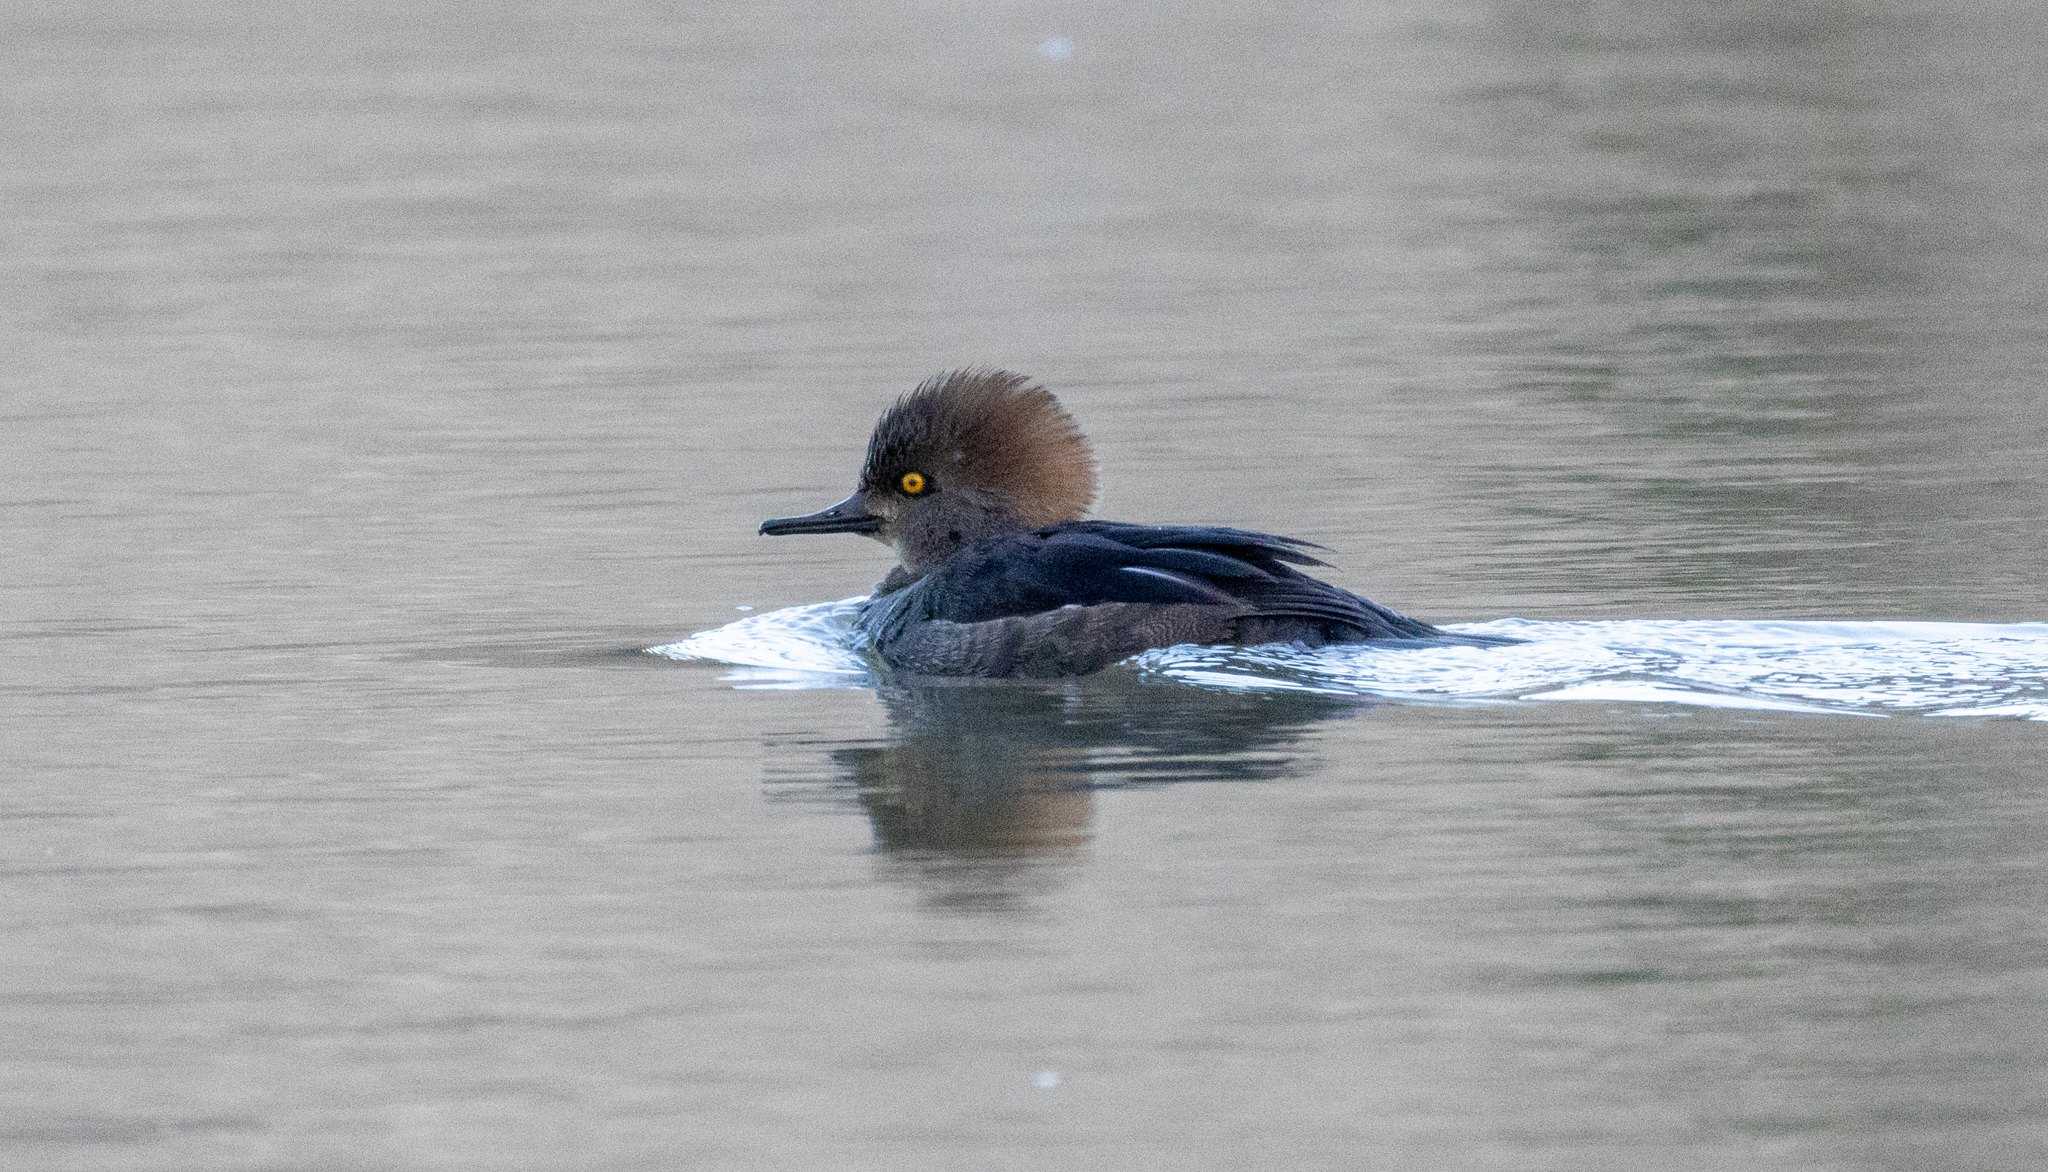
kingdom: Animalia
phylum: Chordata
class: Aves
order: Anseriformes
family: Anatidae
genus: Lophodytes
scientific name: Lophodytes cucullatus
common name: Hooded merganser
